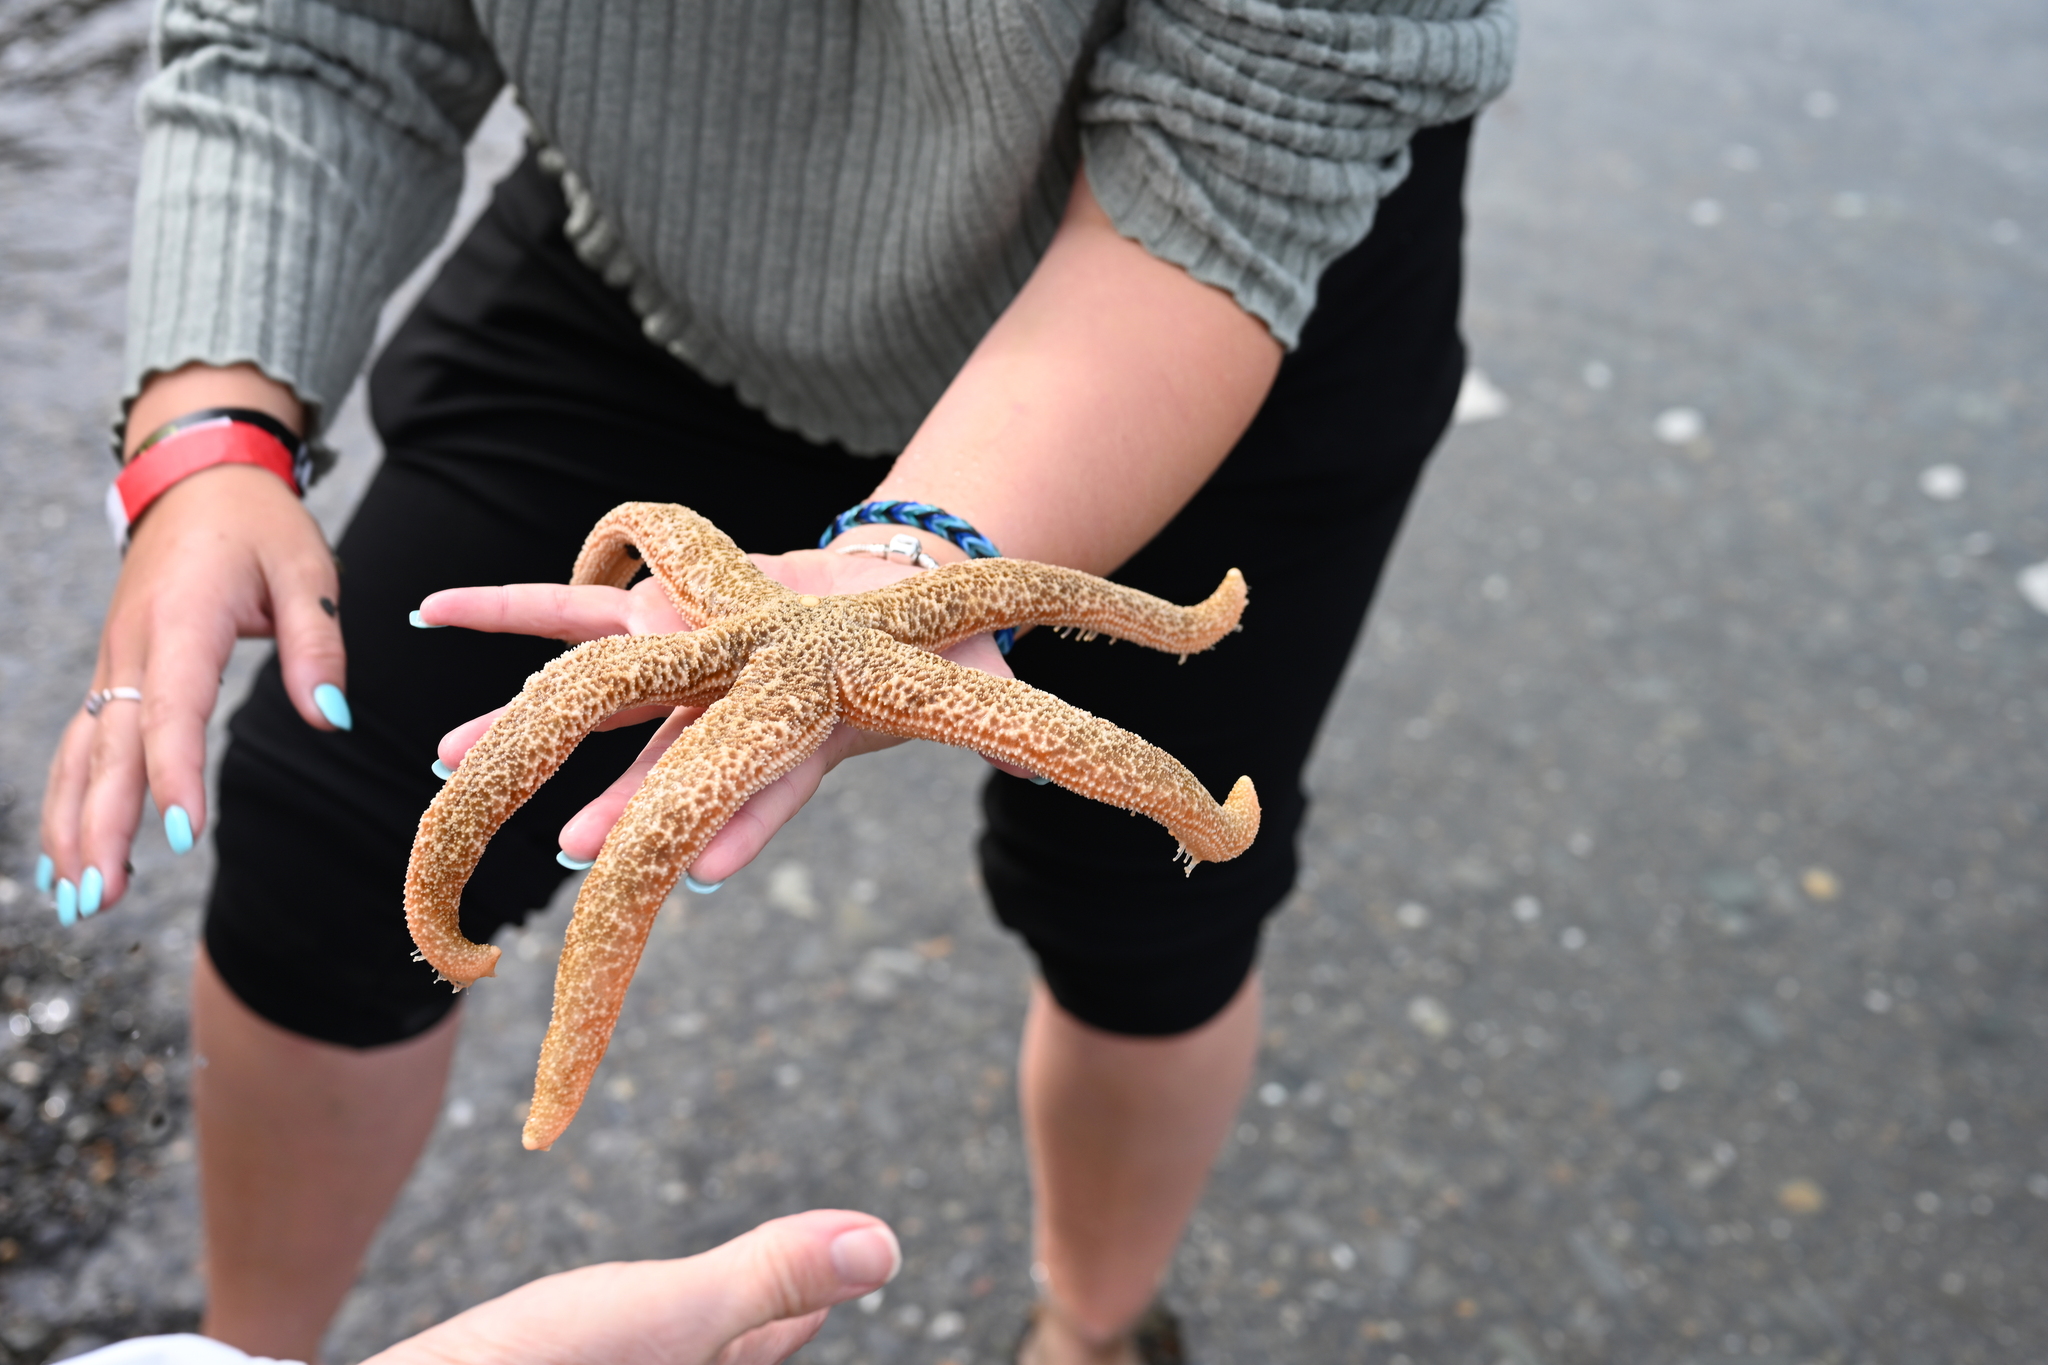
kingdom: Animalia
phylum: Echinodermata
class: Asteroidea
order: Forcipulatida
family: Asteriidae
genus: Evasterias
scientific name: Evasterias troschelii
